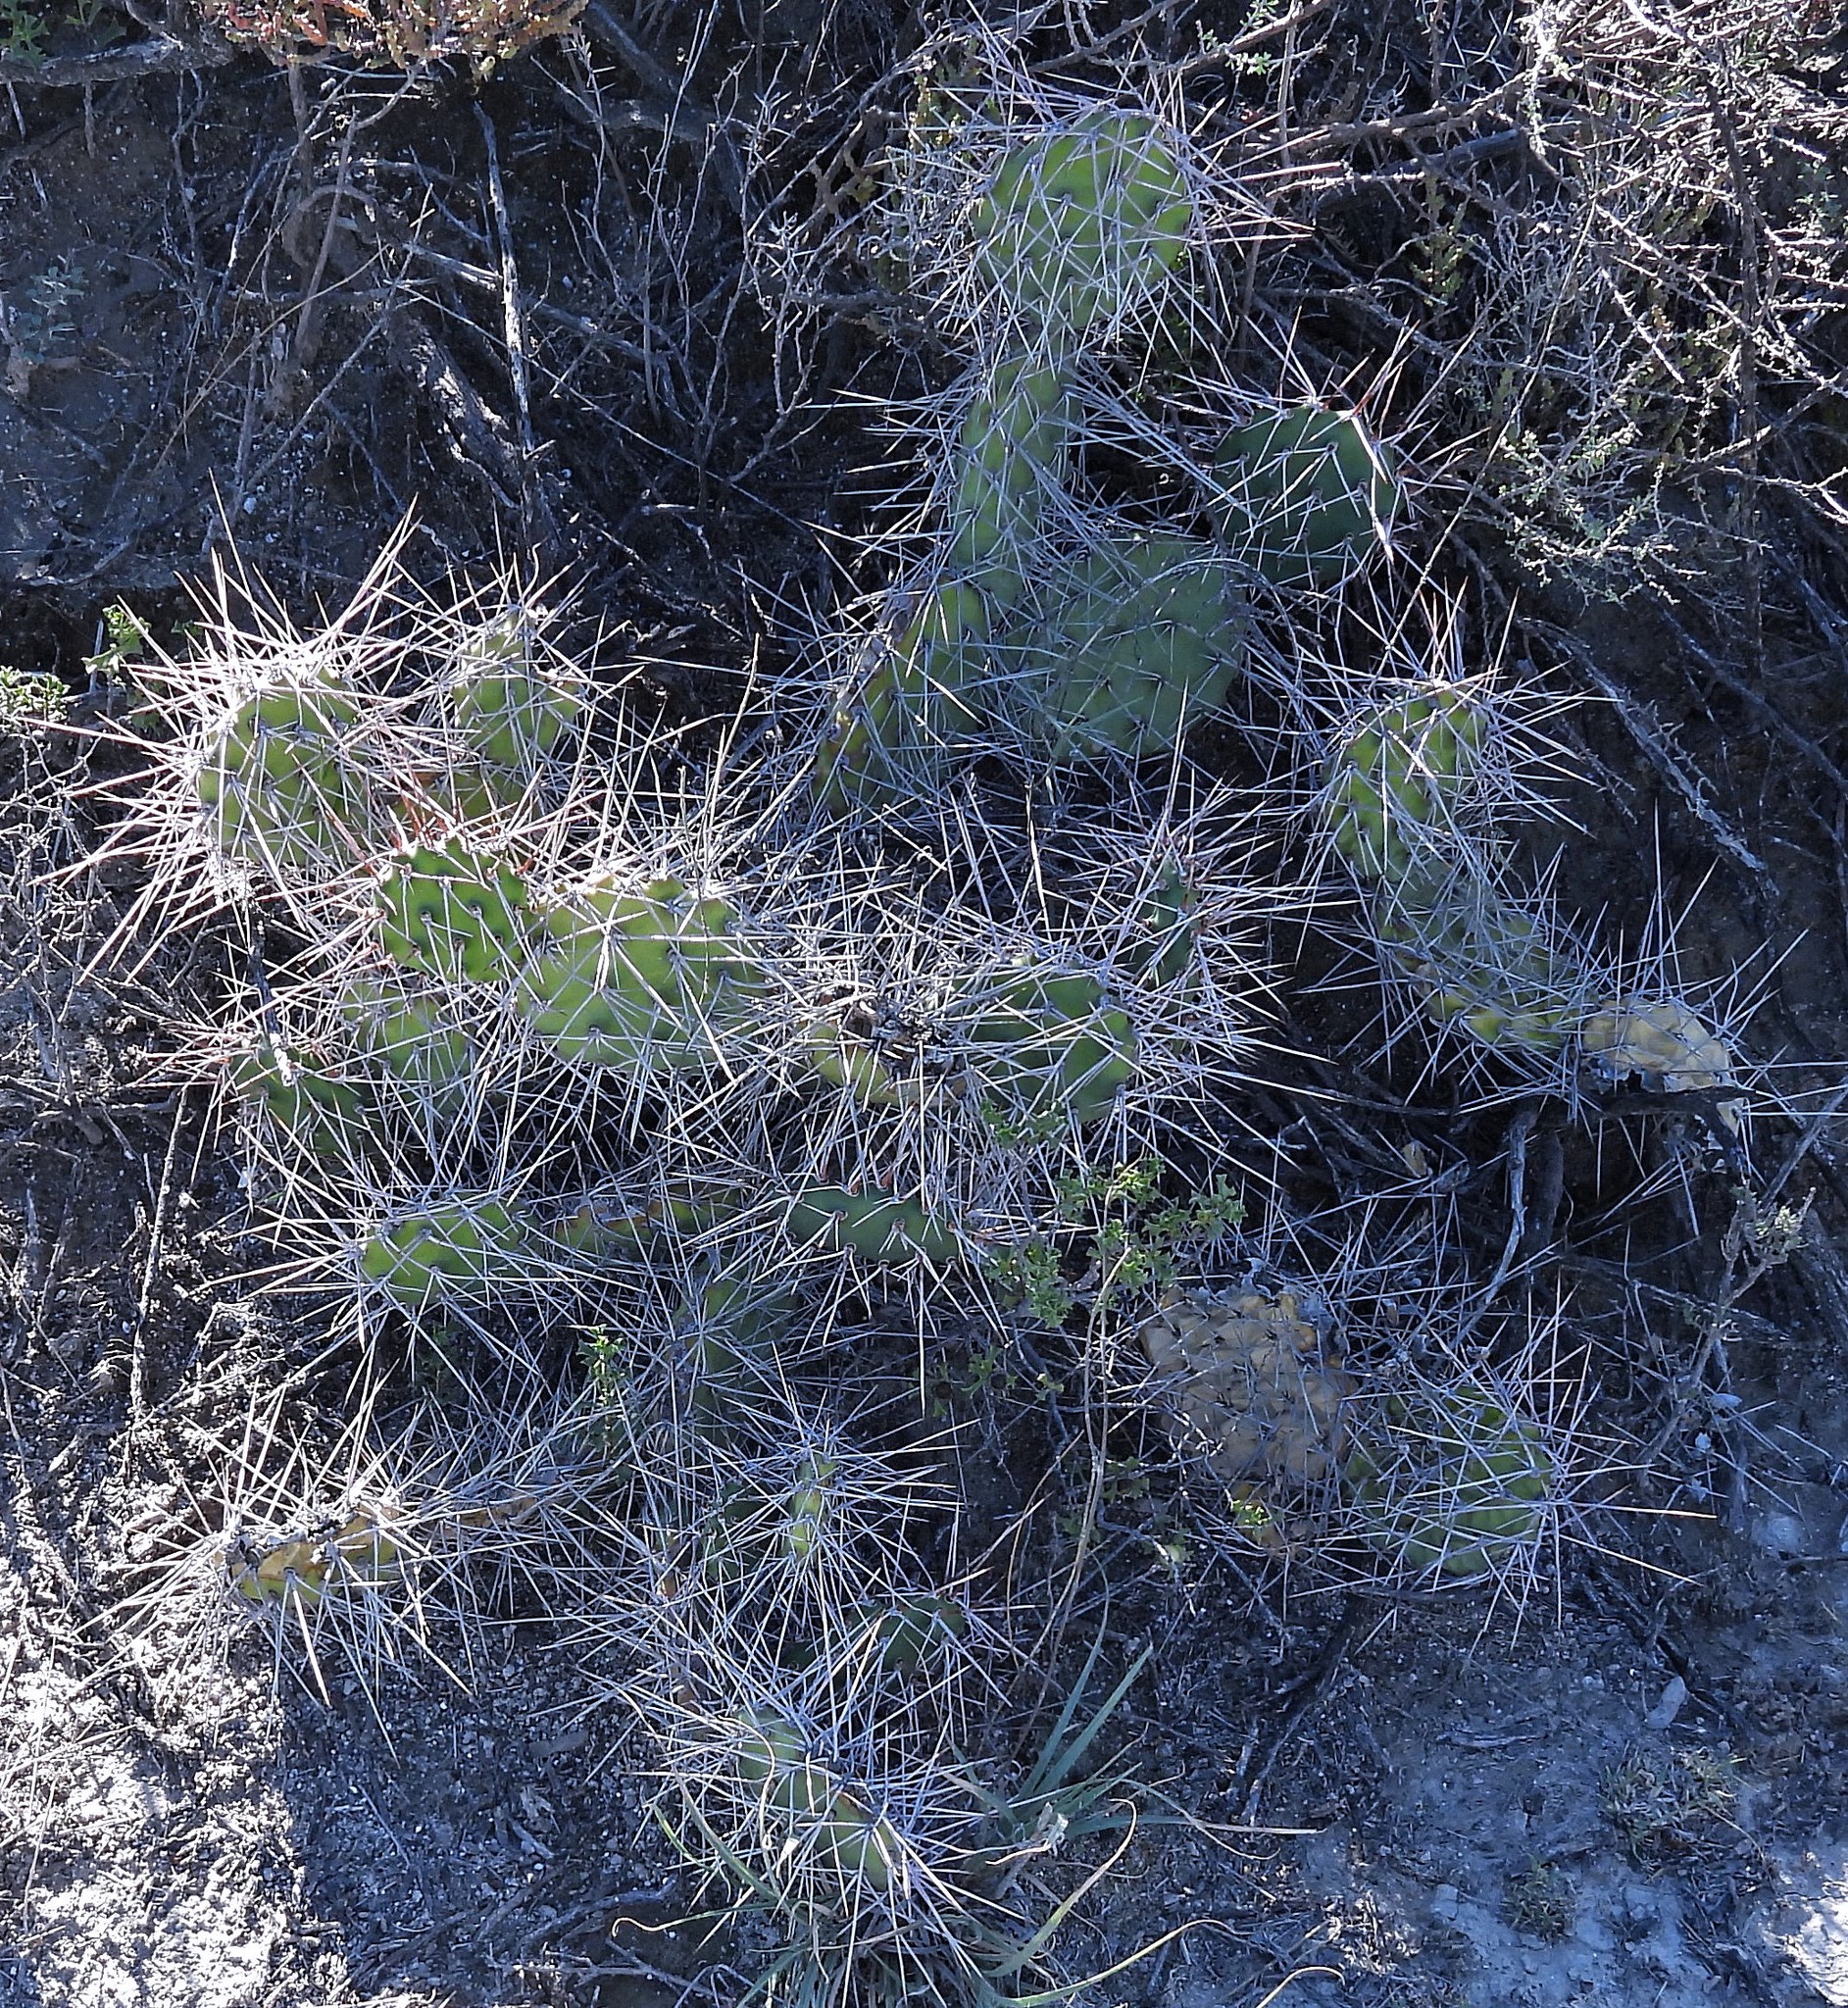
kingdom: Plantae
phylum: Tracheophyta
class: Magnoliopsida
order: Caryophyllales
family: Cactaceae
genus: Opuntia
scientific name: Opuntia sulphurea
